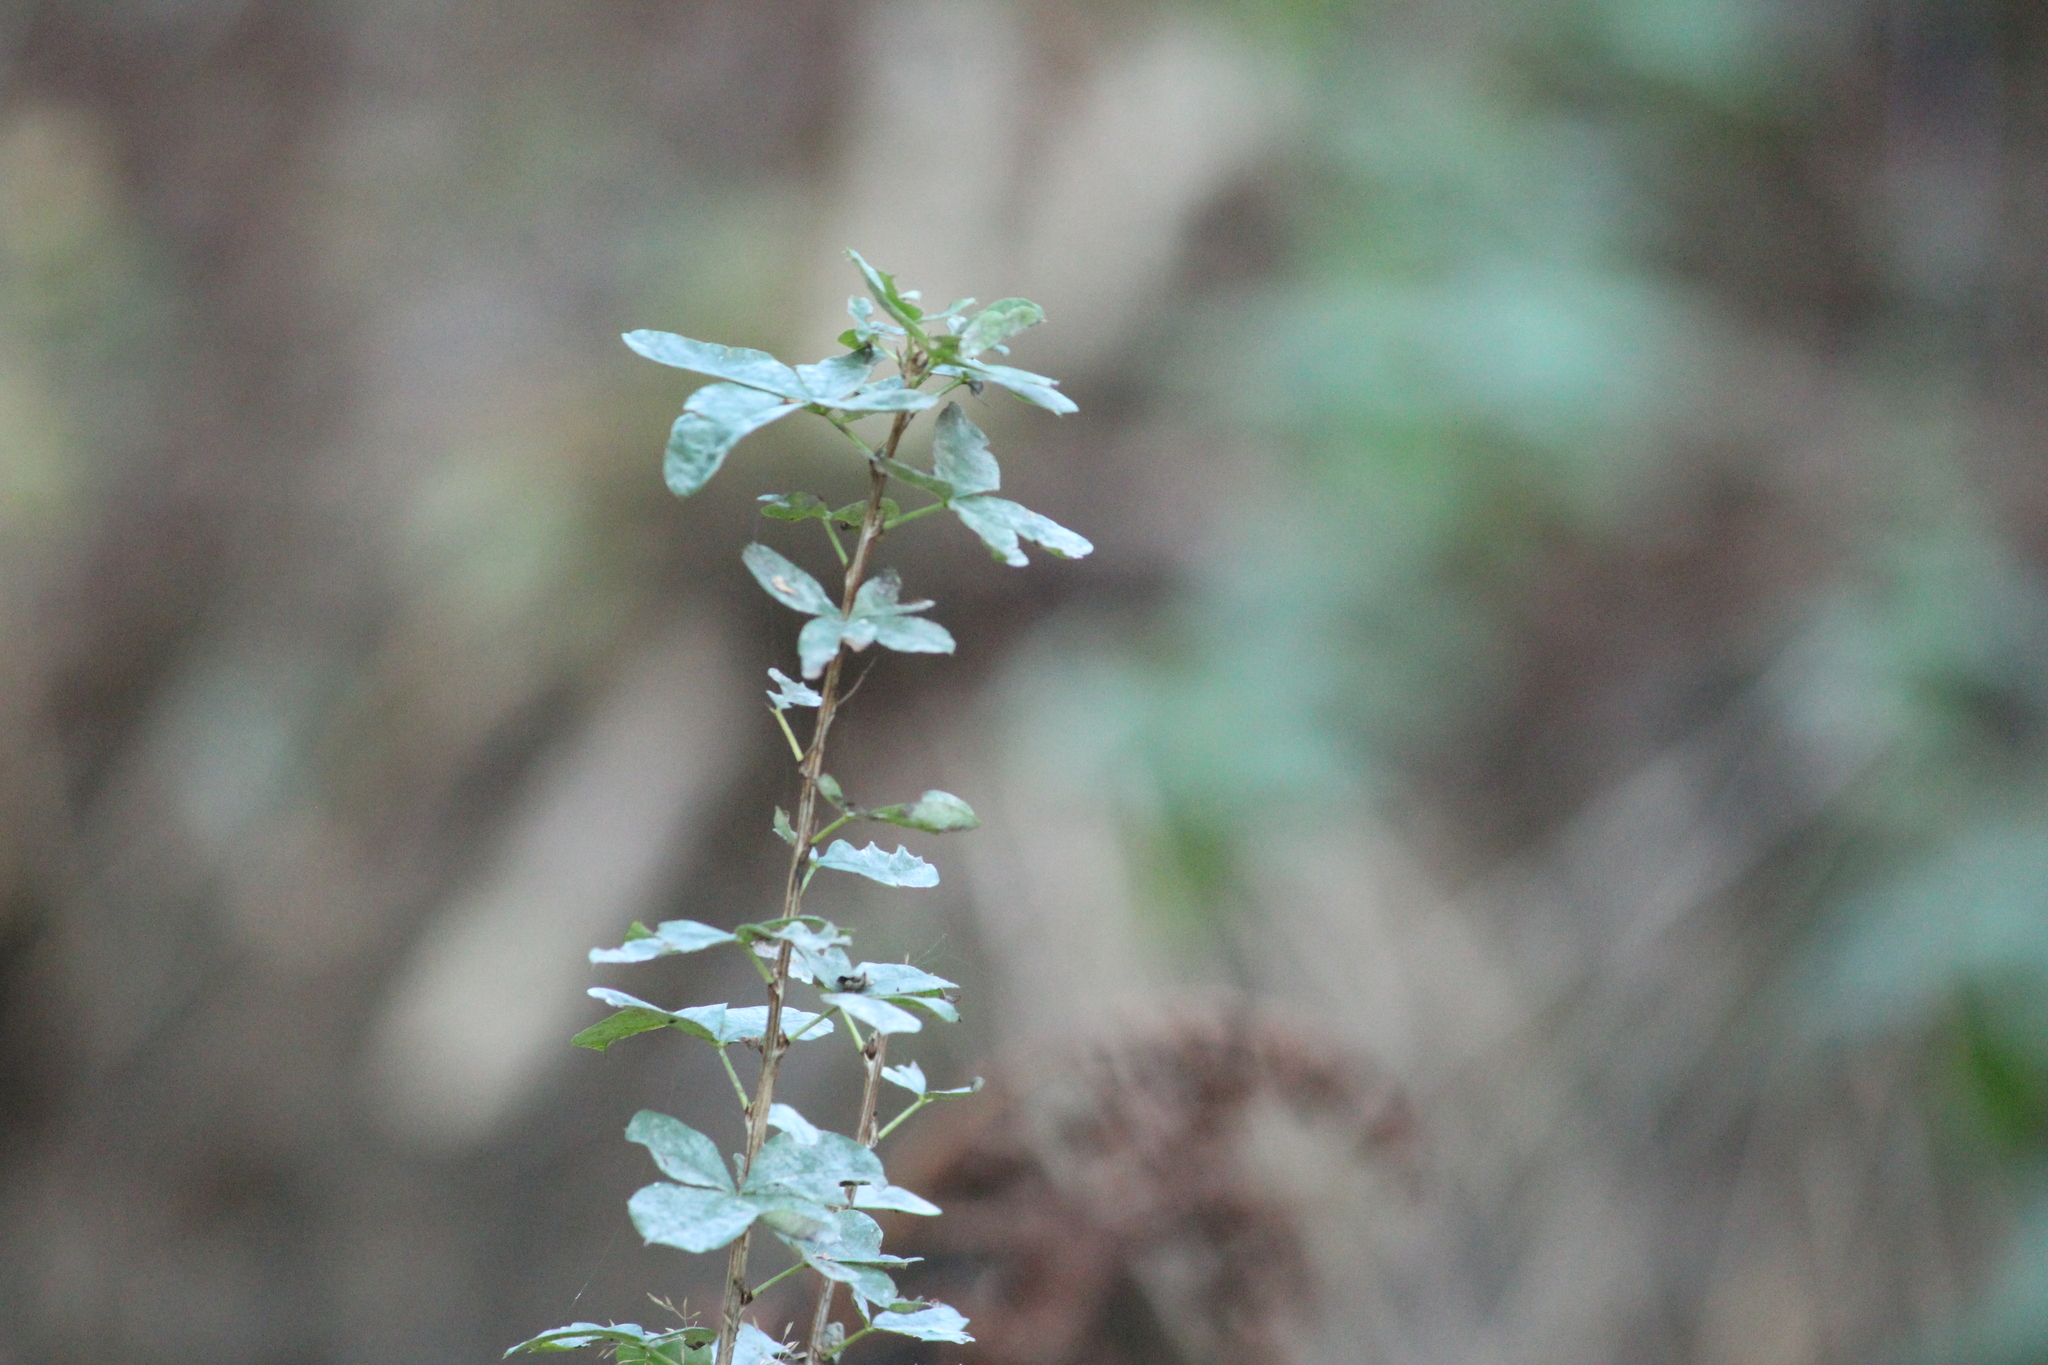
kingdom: Plantae
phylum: Tracheophyta
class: Magnoliopsida
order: Fabales
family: Fabaceae
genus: Caragana
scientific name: Caragana frutex
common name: Russian peashrub
